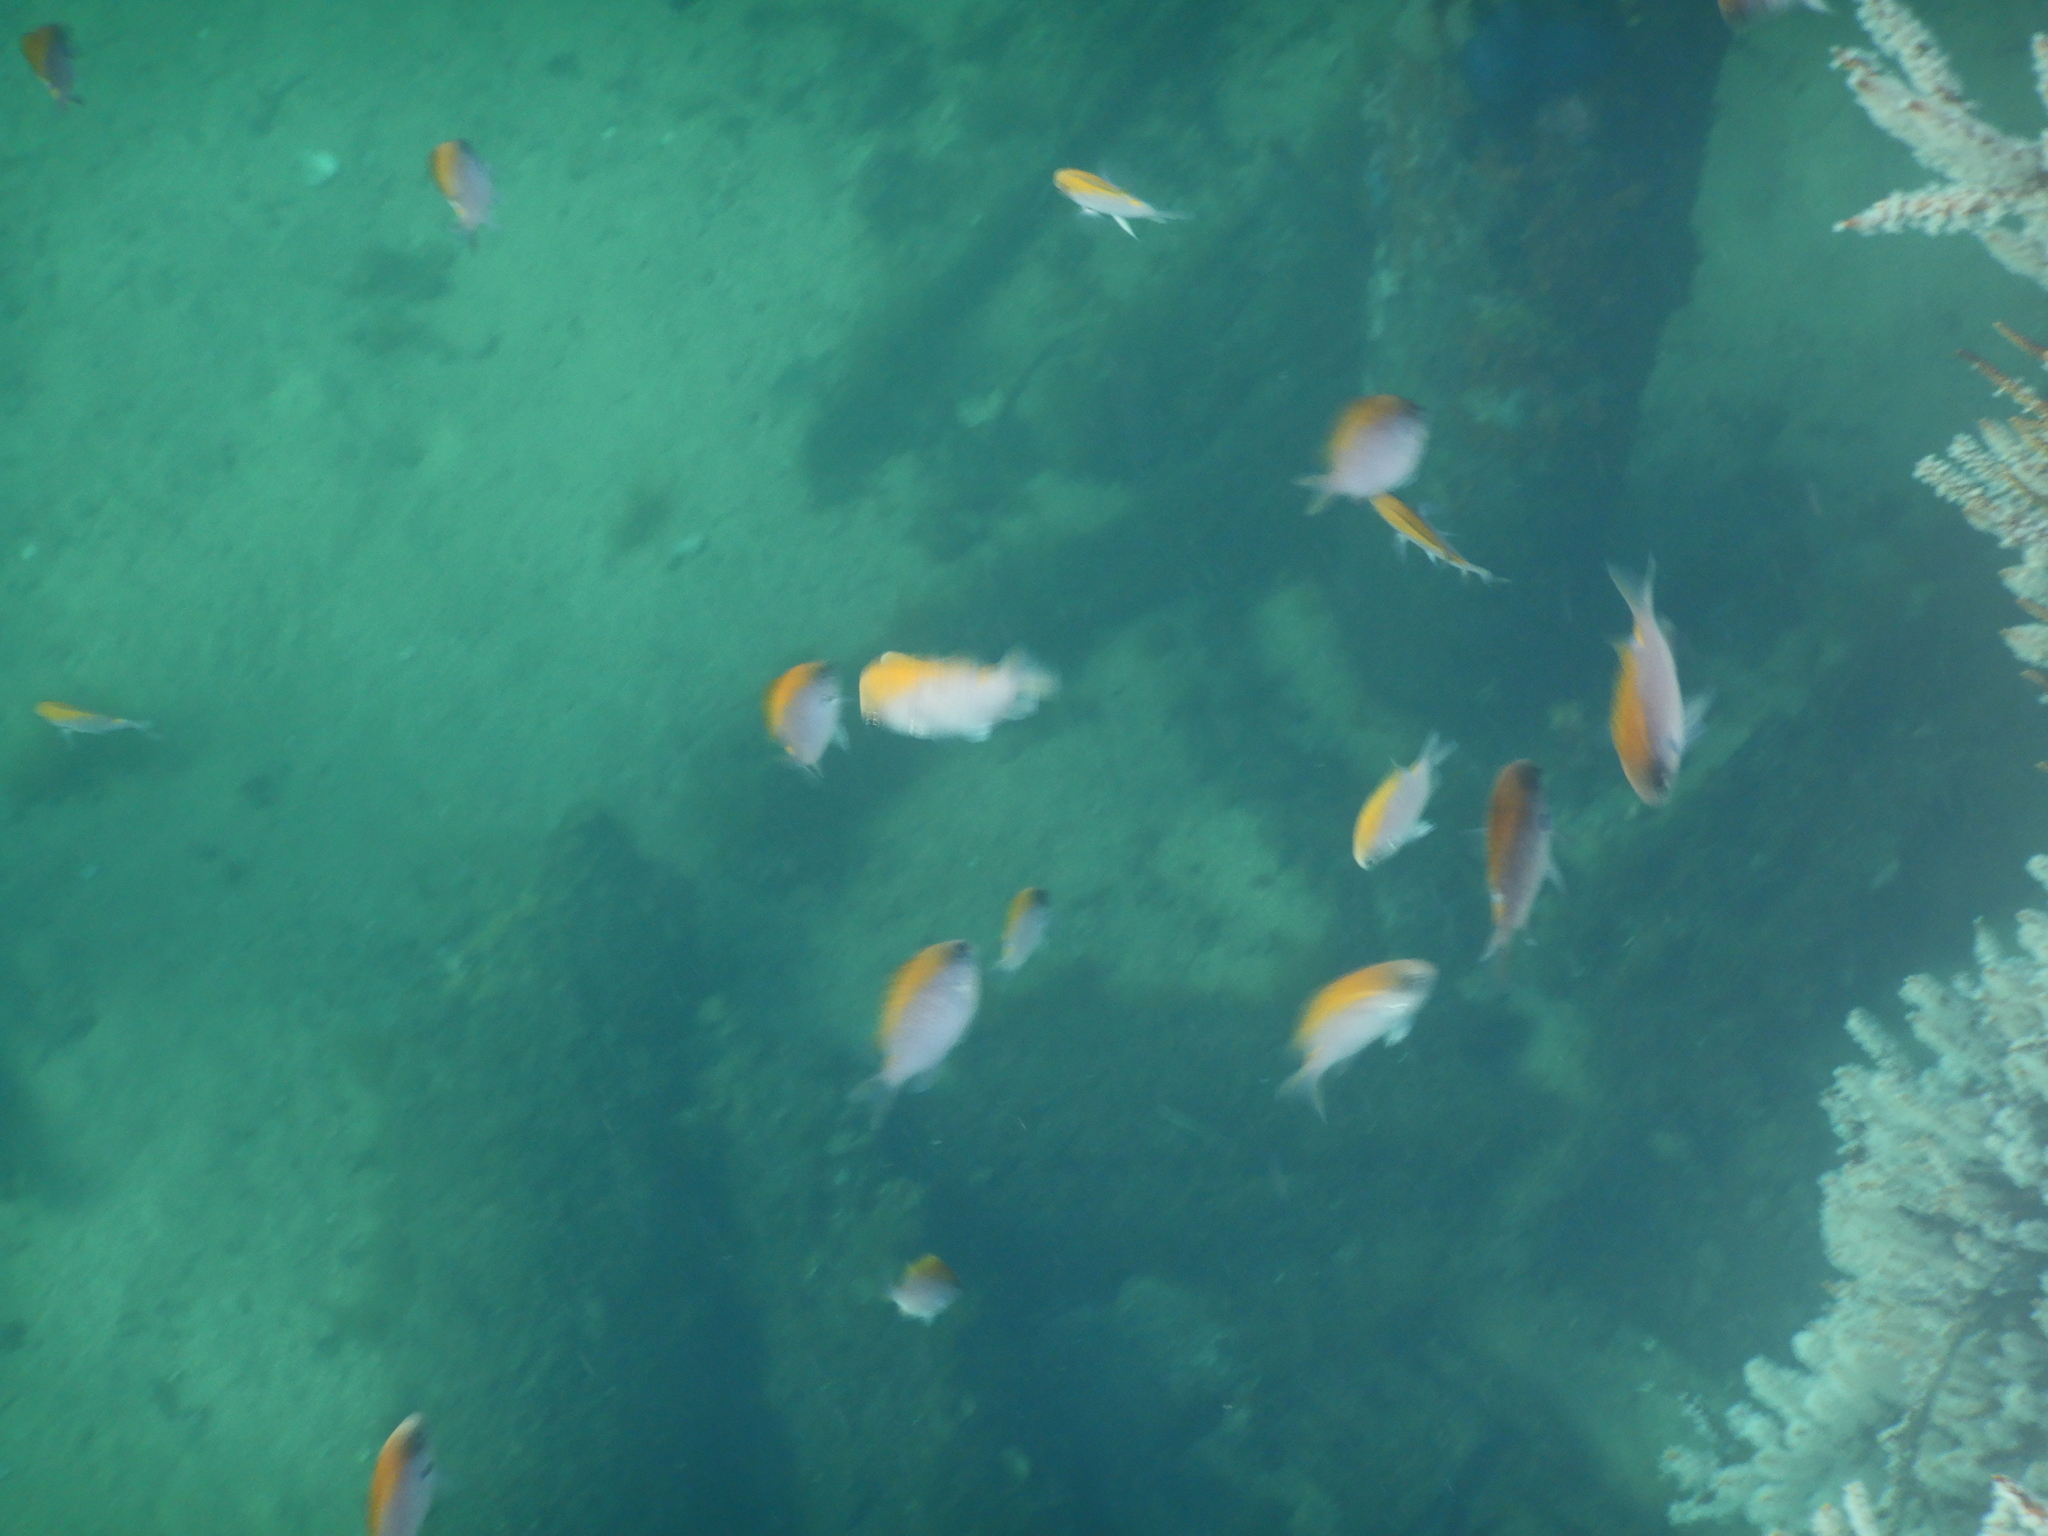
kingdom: Animalia
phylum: Chordata
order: Perciformes
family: Pomacentridae
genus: Chromis
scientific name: Chromis klunzingeri
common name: Black-headed chromis
